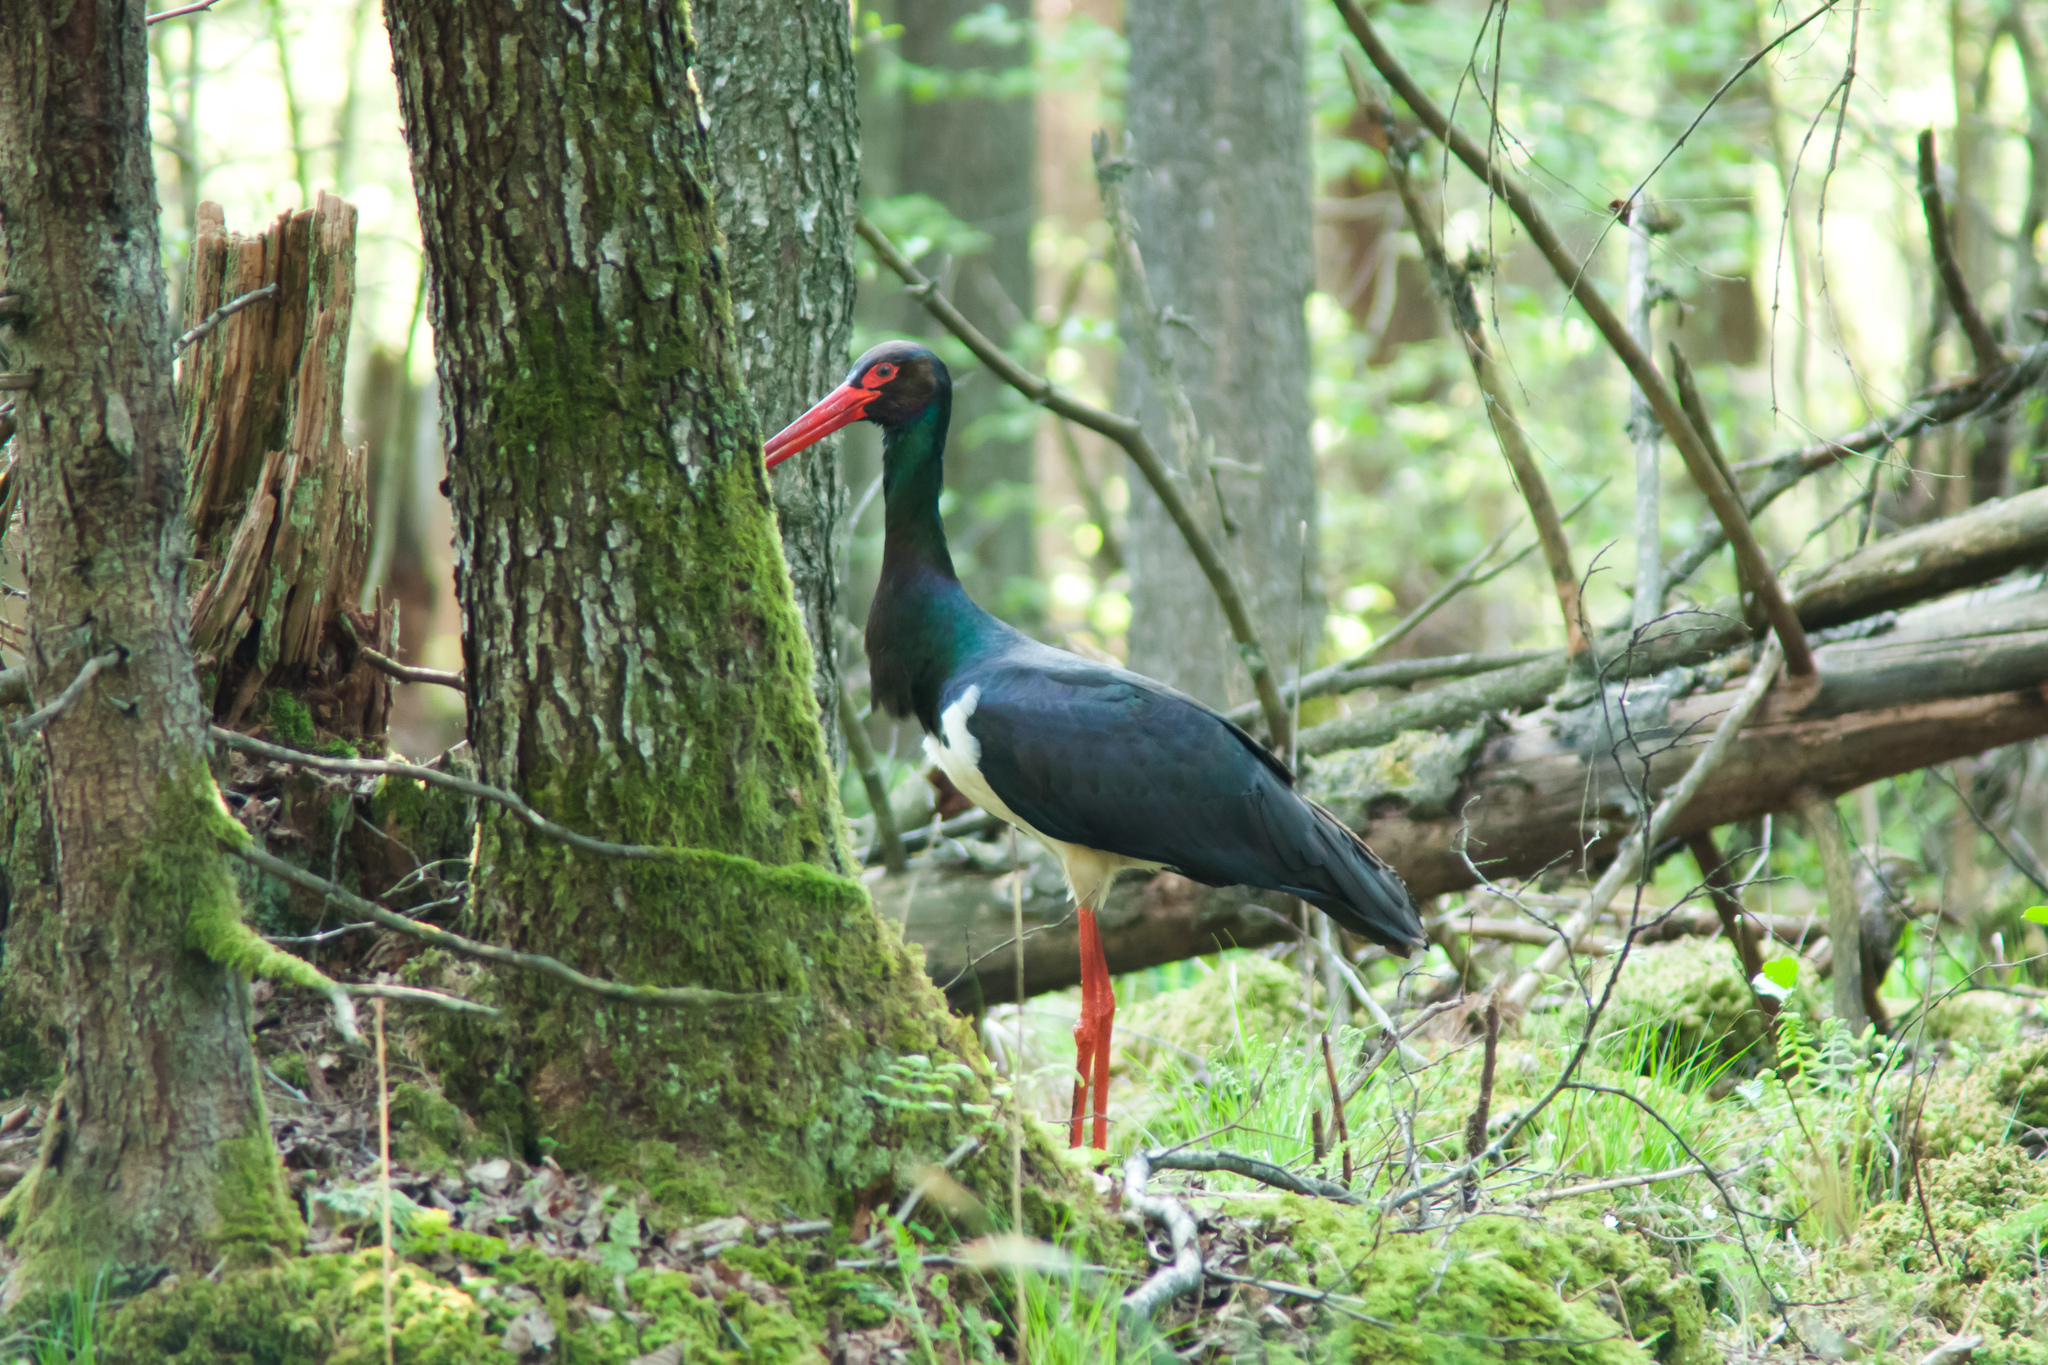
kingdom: Animalia
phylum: Chordata
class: Aves
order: Ciconiiformes
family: Ciconiidae
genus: Ciconia
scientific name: Ciconia nigra
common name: Black stork
